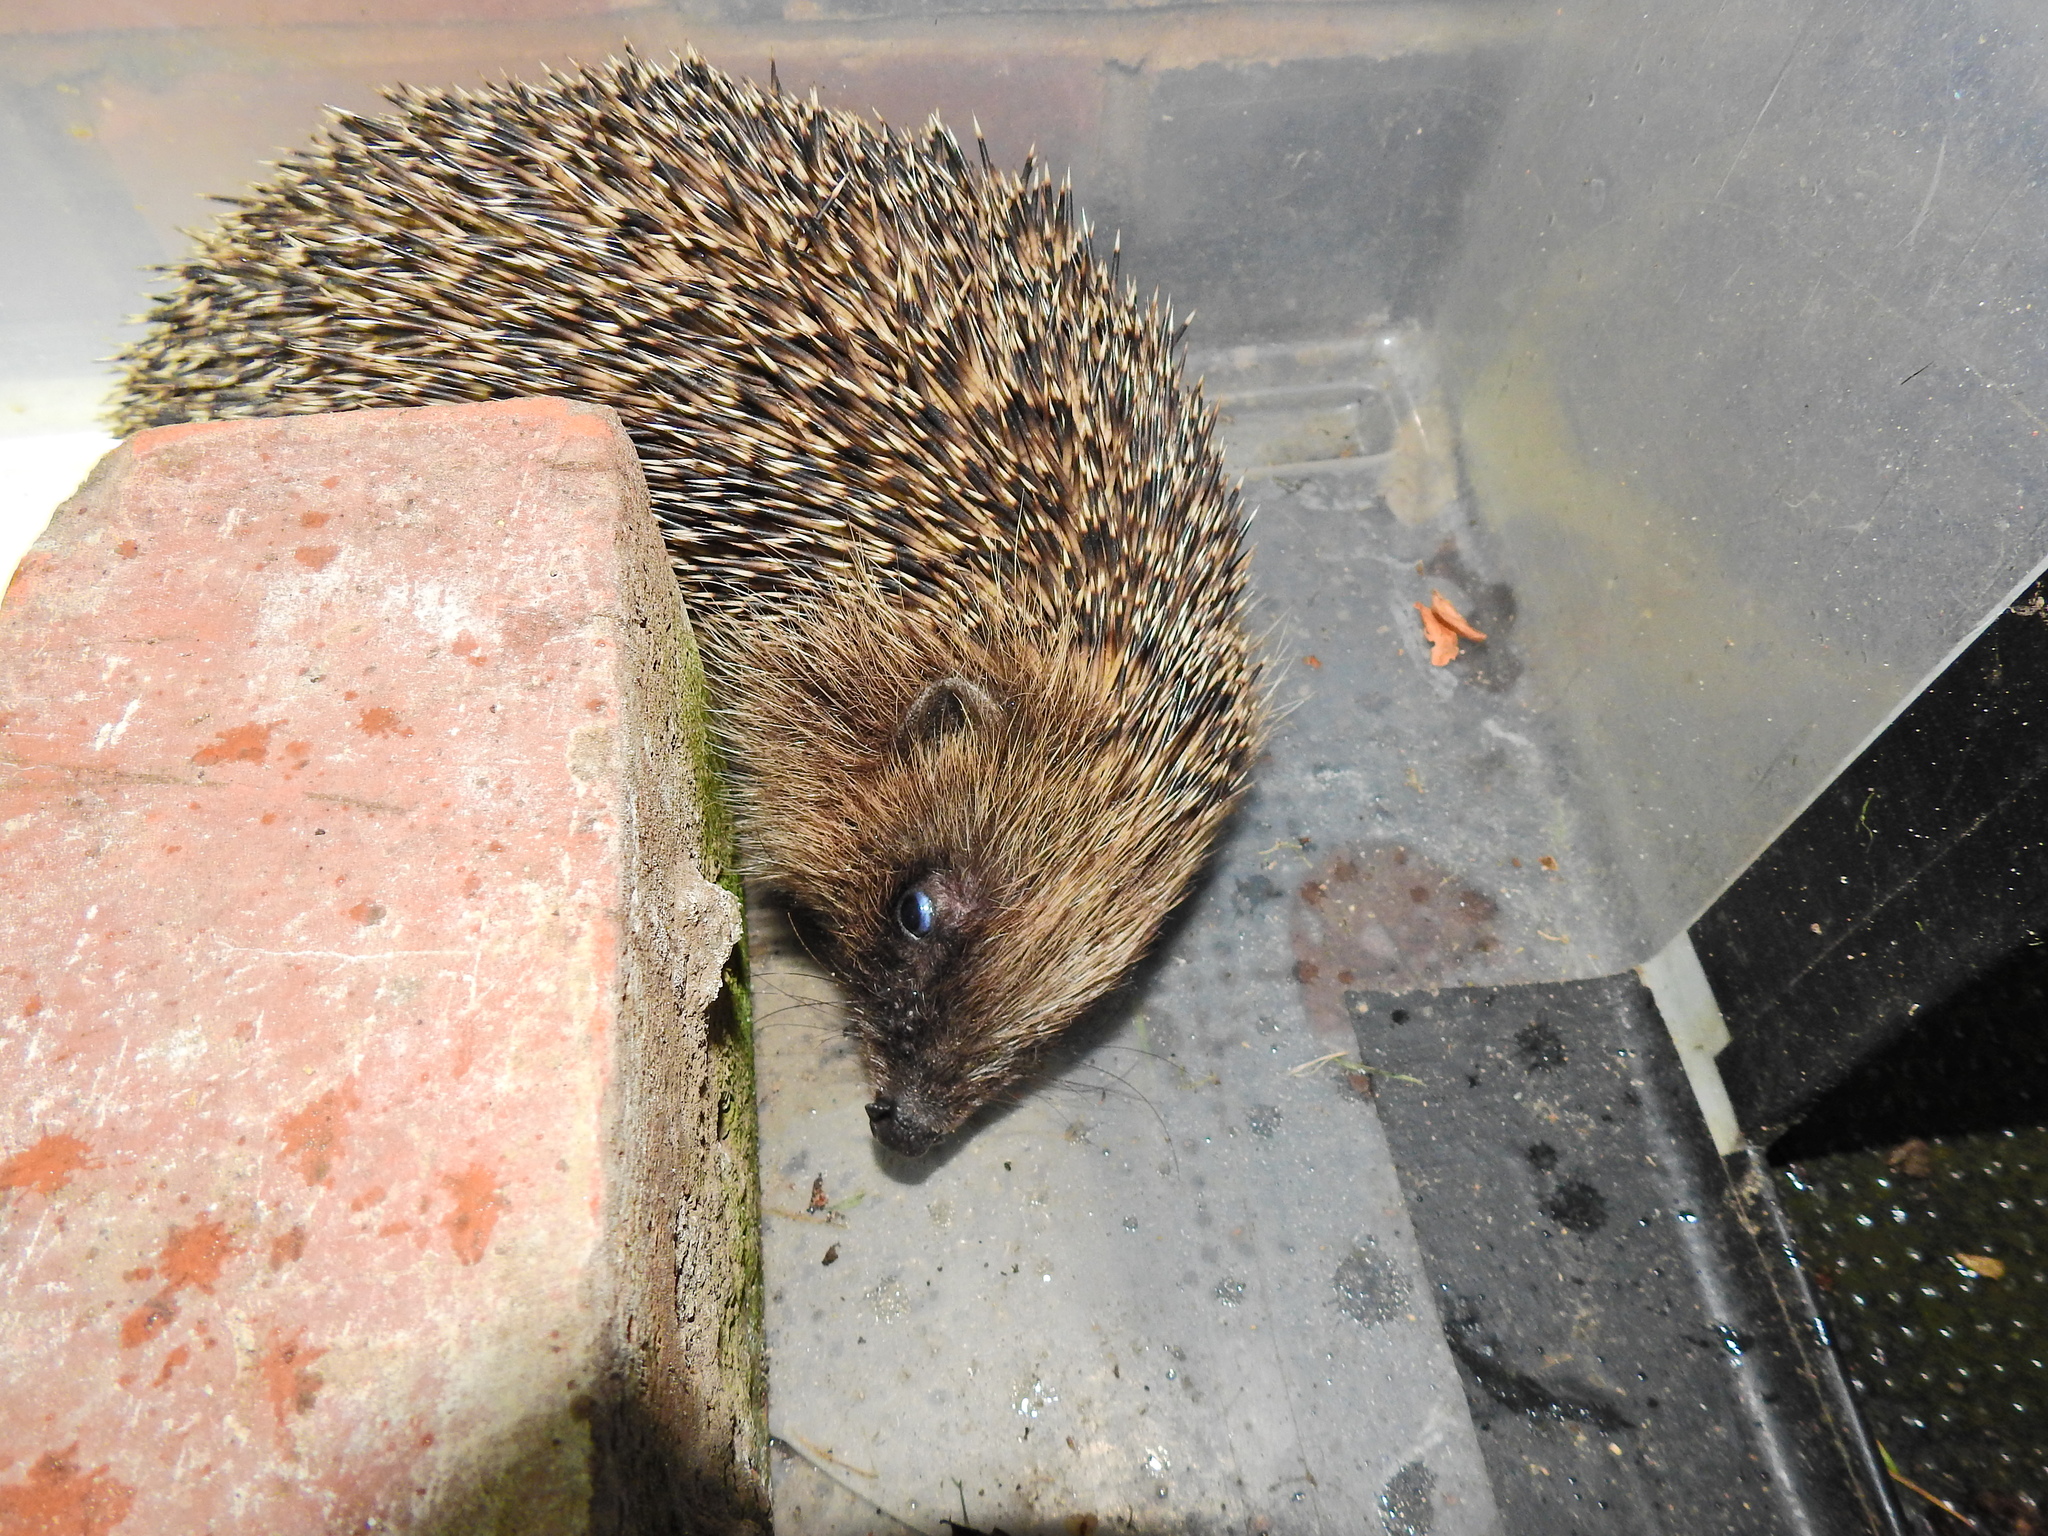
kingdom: Animalia
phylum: Chordata
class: Mammalia
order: Erinaceomorpha
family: Erinaceidae
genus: Erinaceus
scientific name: Erinaceus europaeus
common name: West european hedgehog
